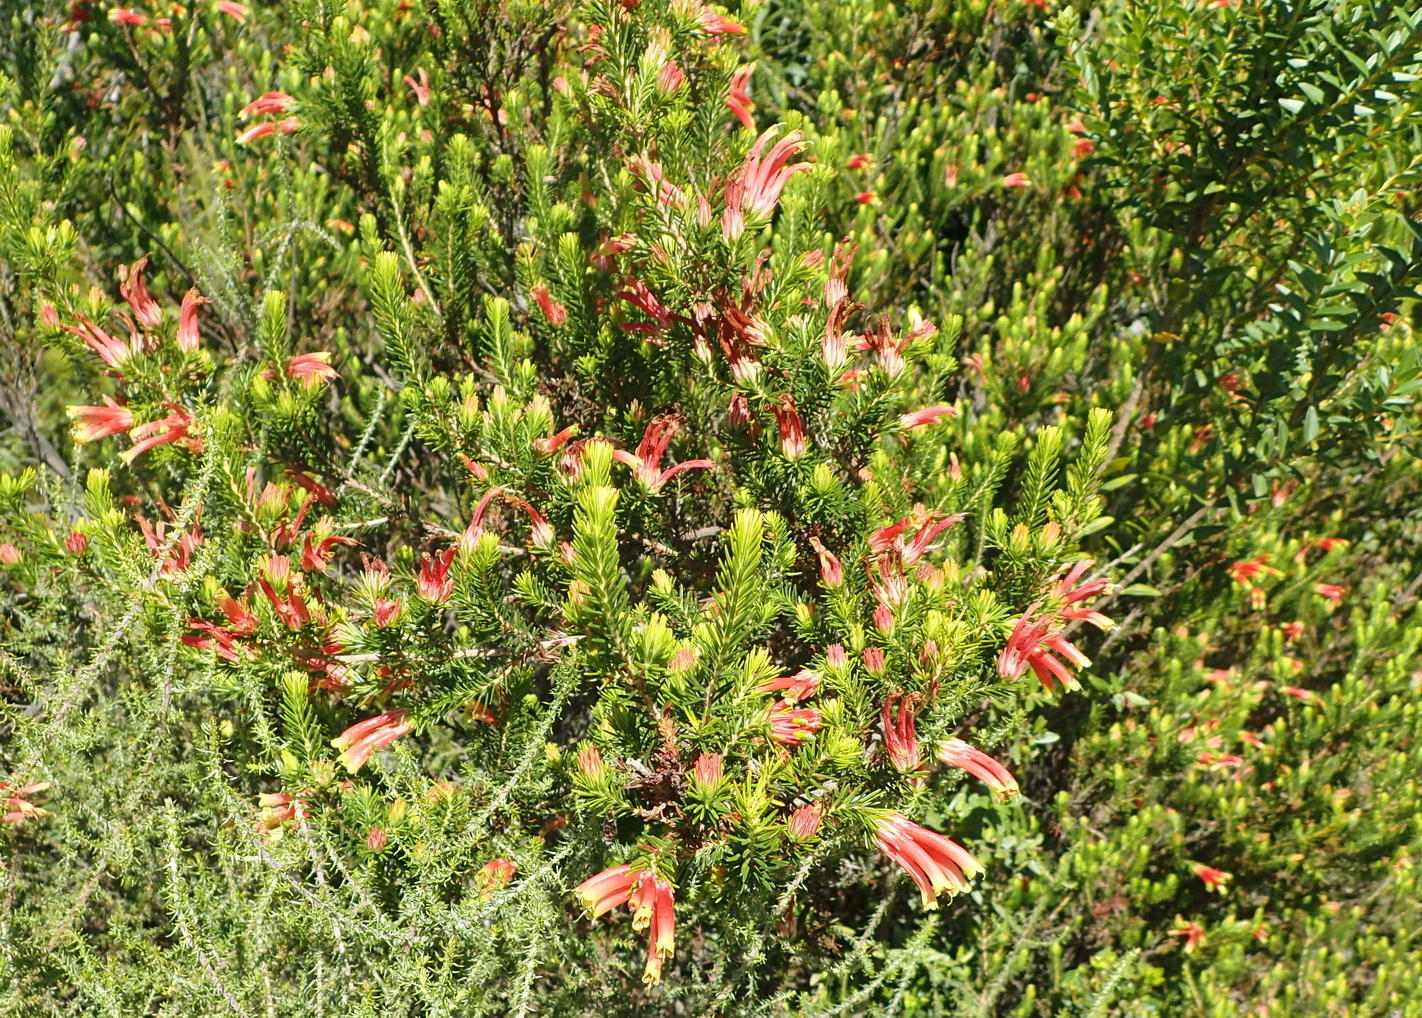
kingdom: Plantae
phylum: Tracheophyta
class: Magnoliopsida
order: Ericales
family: Ericaceae
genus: Erica
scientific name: Erica unicolor
